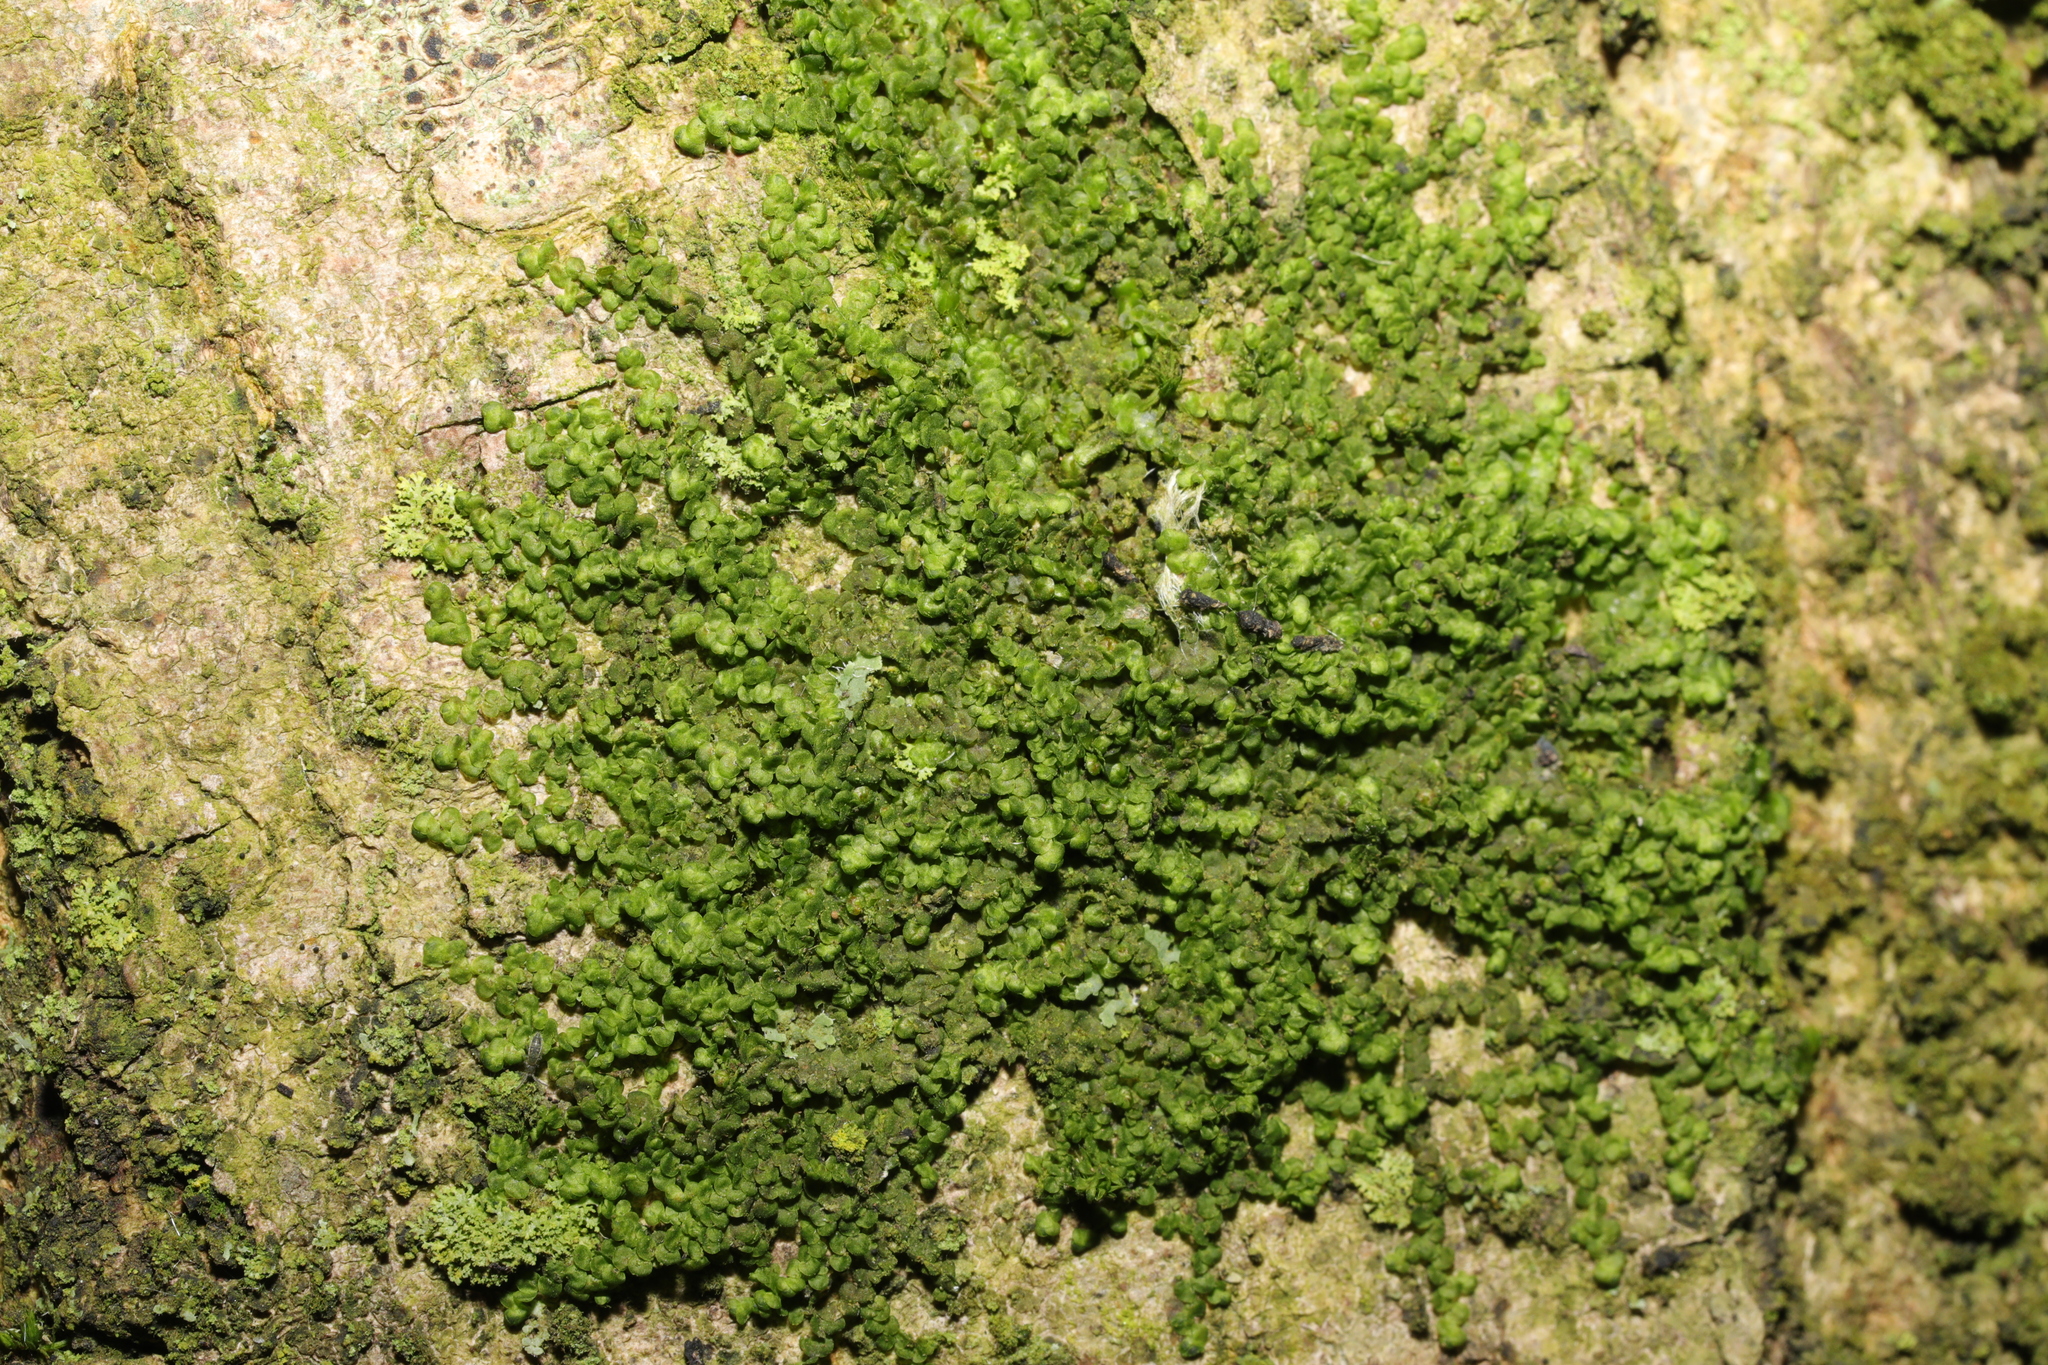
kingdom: Plantae
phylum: Marchantiophyta
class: Jungermanniopsida
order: Porellales
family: Frullaniaceae
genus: Frullania
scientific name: Frullania dilatata
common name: Dilated scalewort
